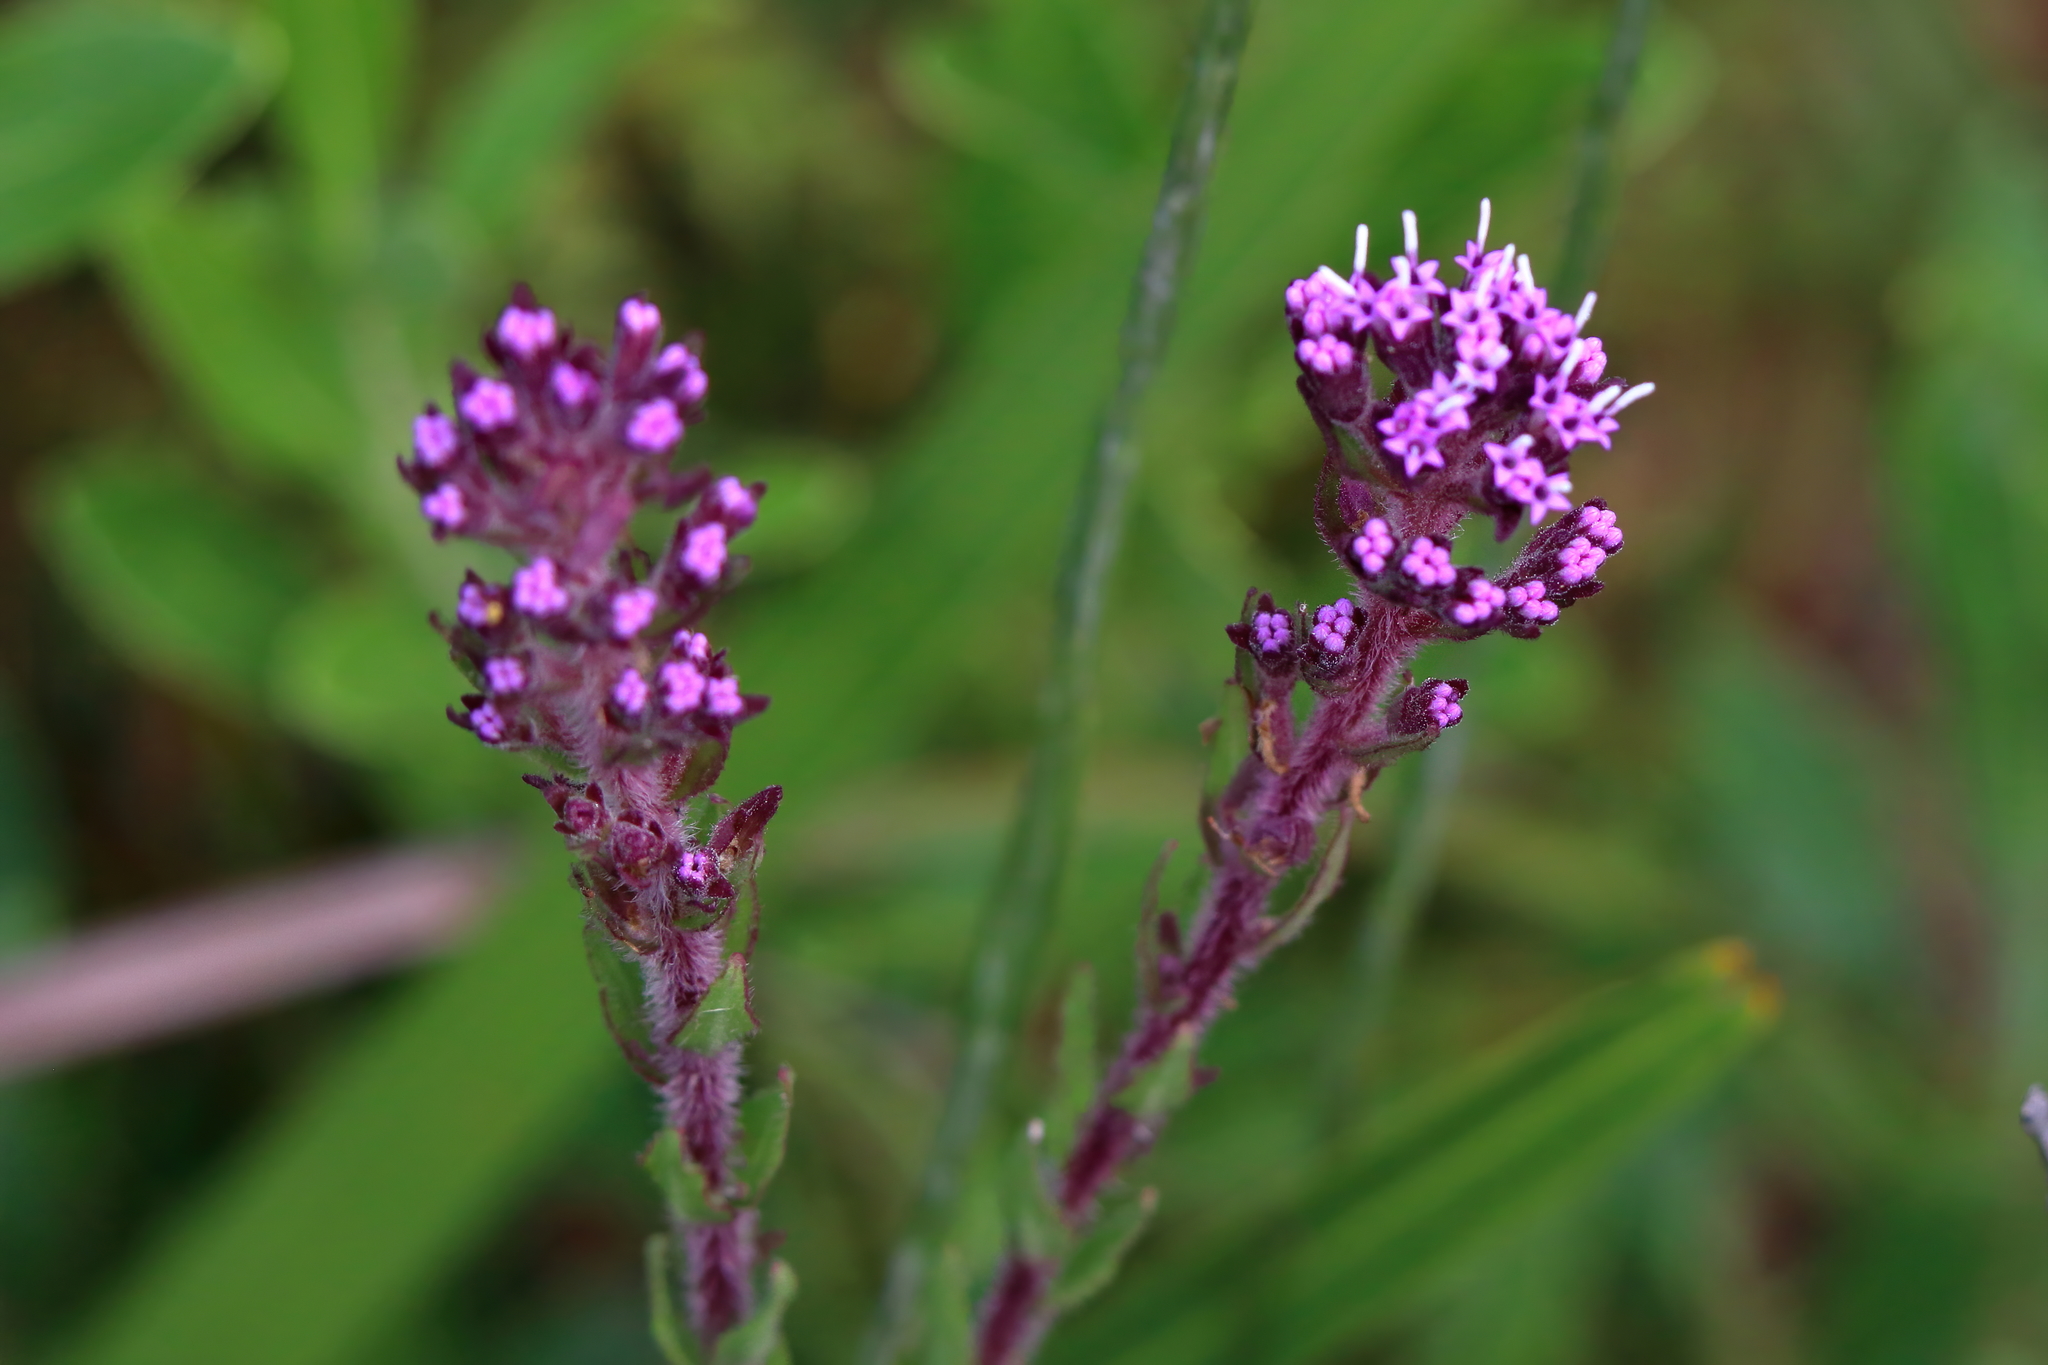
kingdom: Plantae
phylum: Tracheophyta
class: Magnoliopsida
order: Asterales
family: Asteraceae
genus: Carphephorus
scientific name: Carphephorus paniculatus
